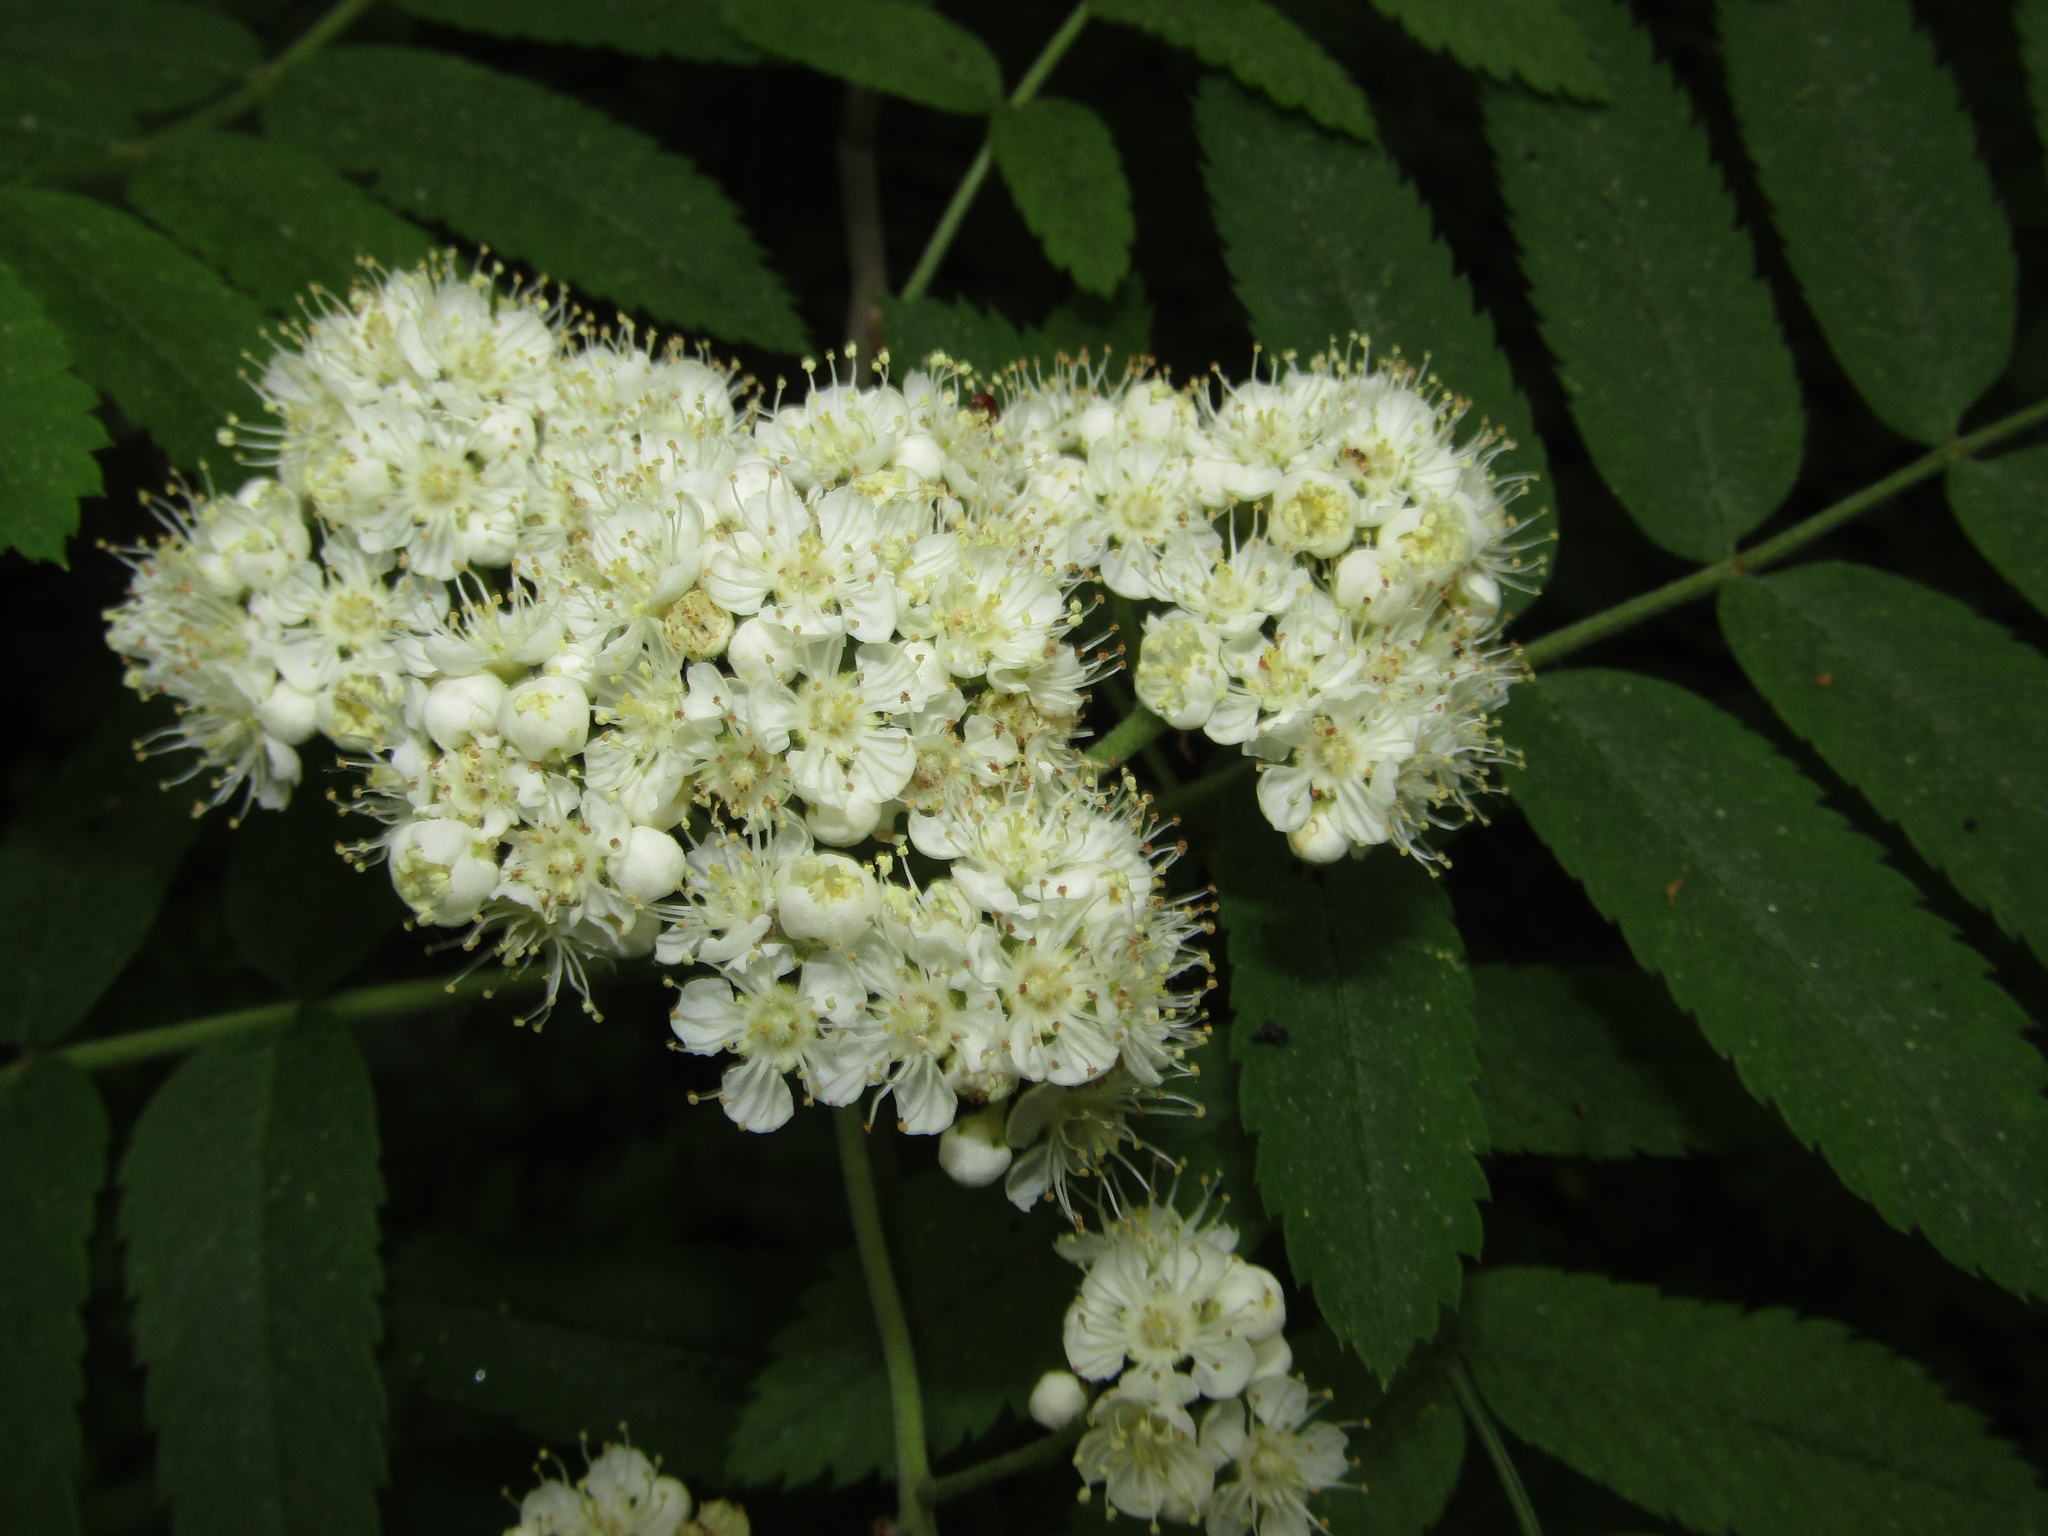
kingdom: Plantae
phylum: Tracheophyta
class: Magnoliopsida
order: Rosales
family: Rosaceae
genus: Sorbus
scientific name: Sorbus aucuparia
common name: Rowan
